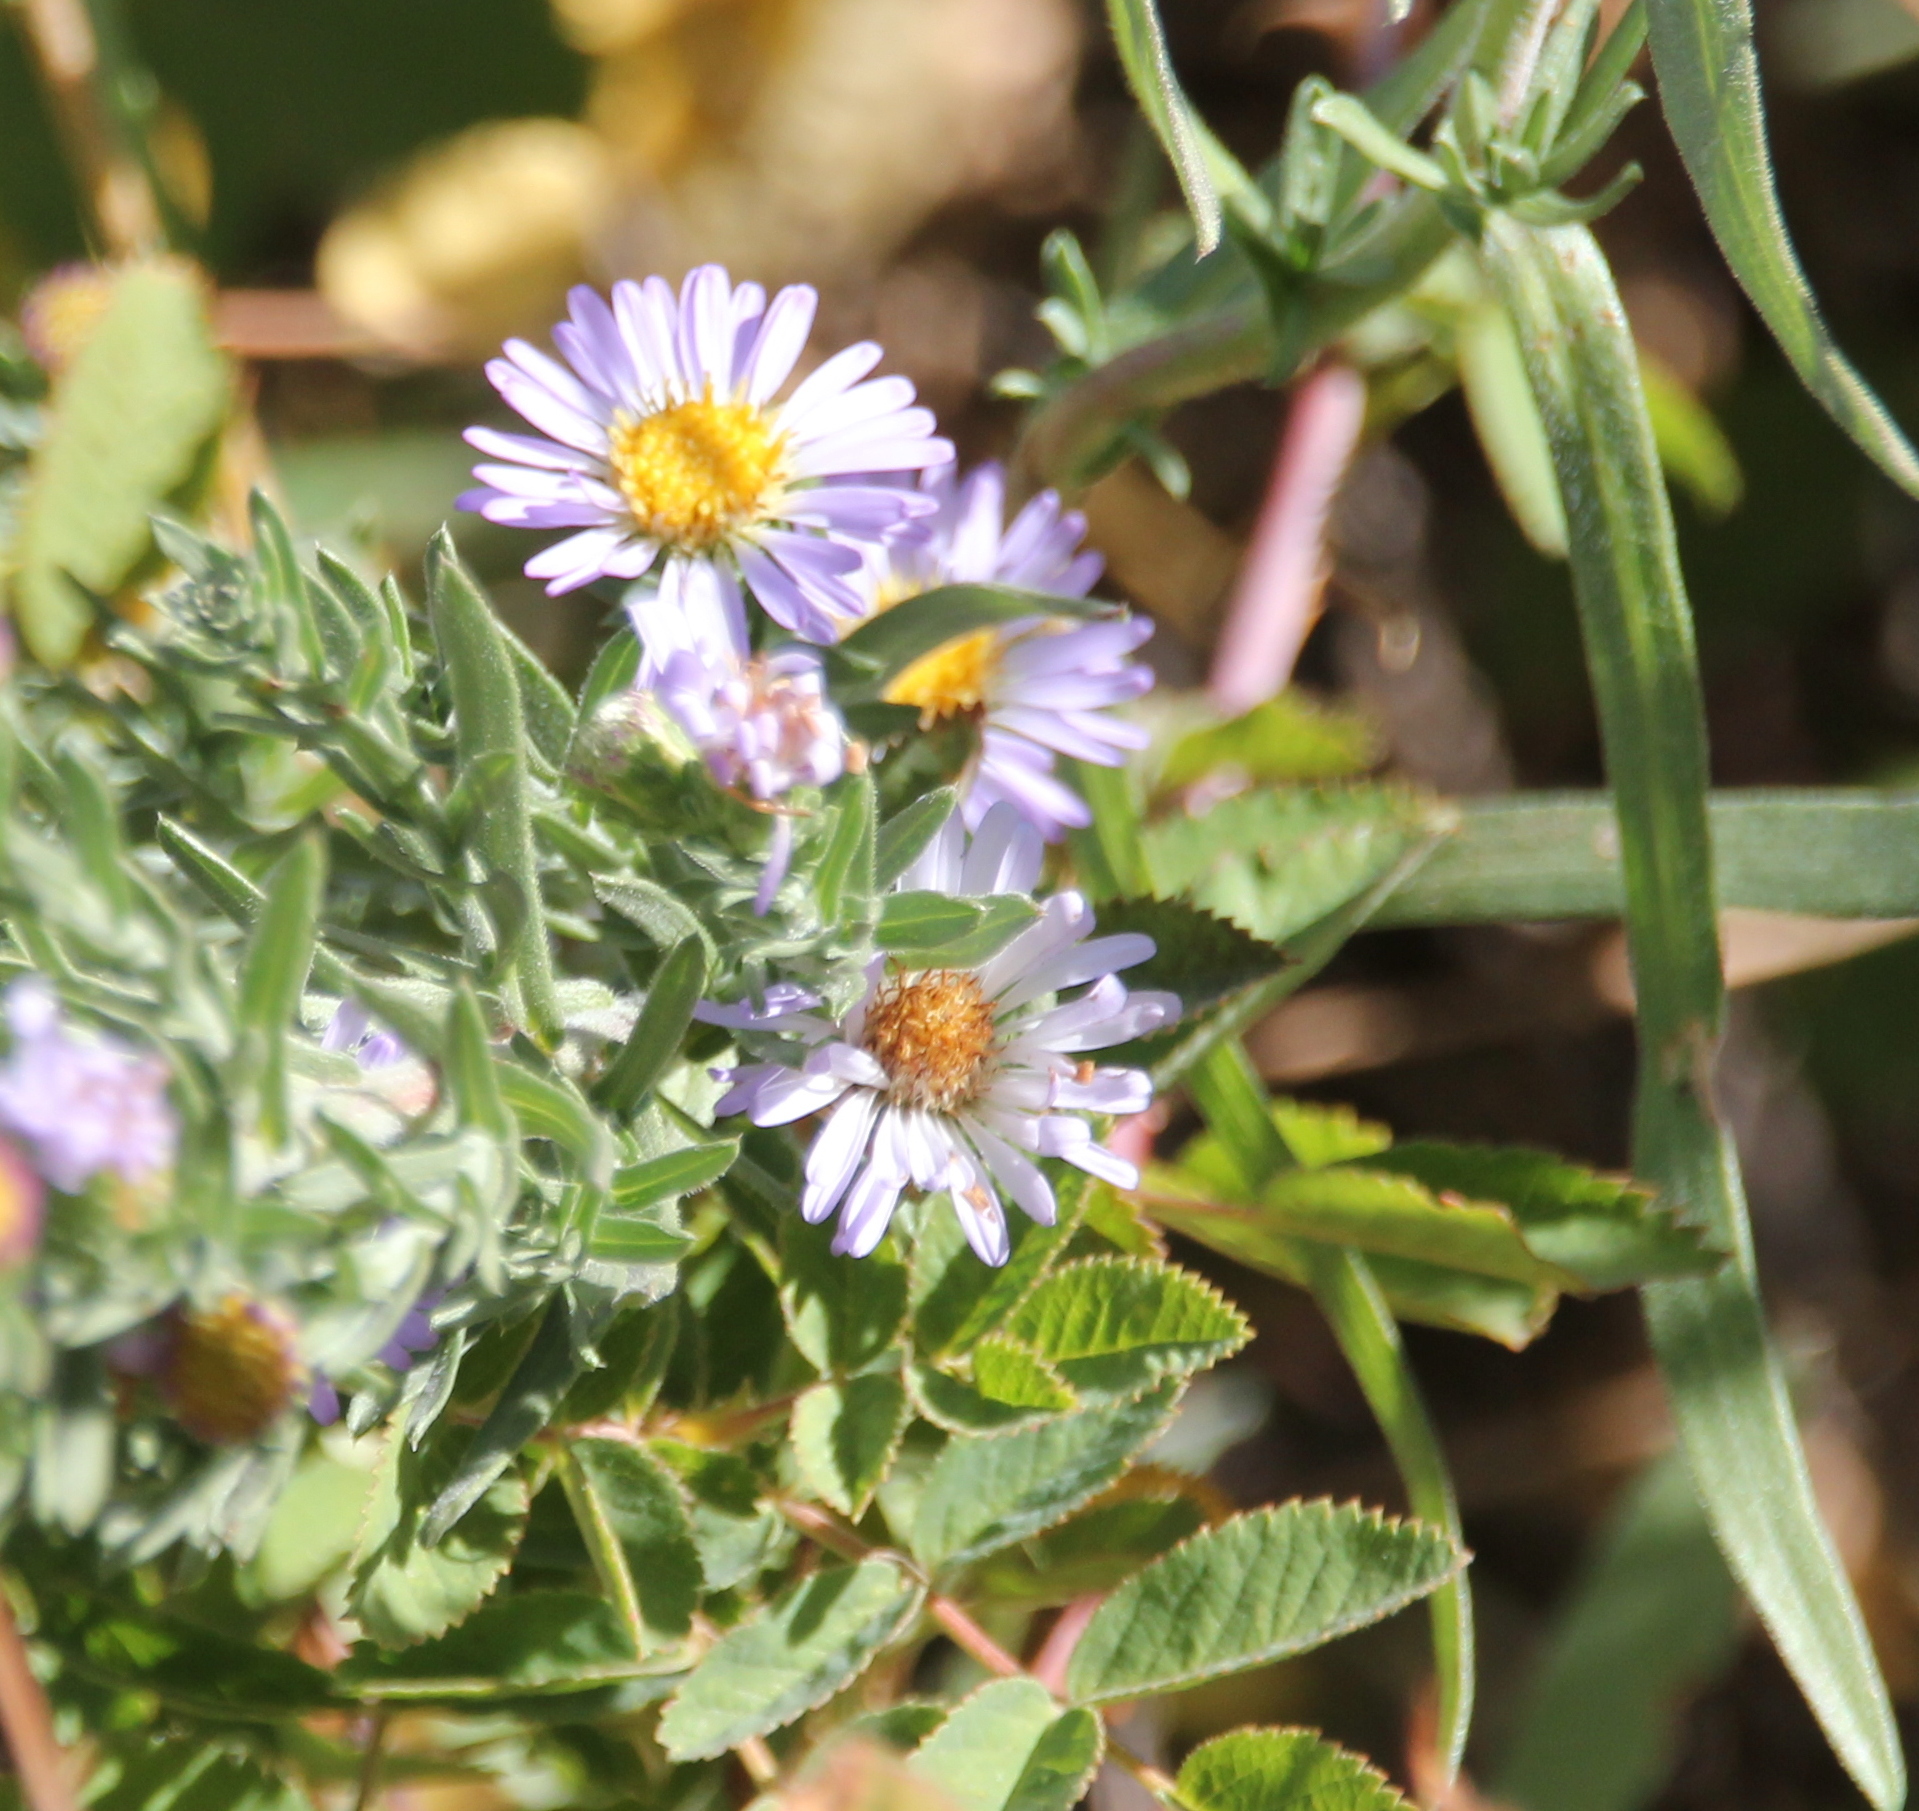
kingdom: Plantae
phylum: Tracheophyta
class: Magnoliopsida
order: Asterales
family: Asteraceae
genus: Symphyotrichum
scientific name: Symphyotrichum defoliatum
